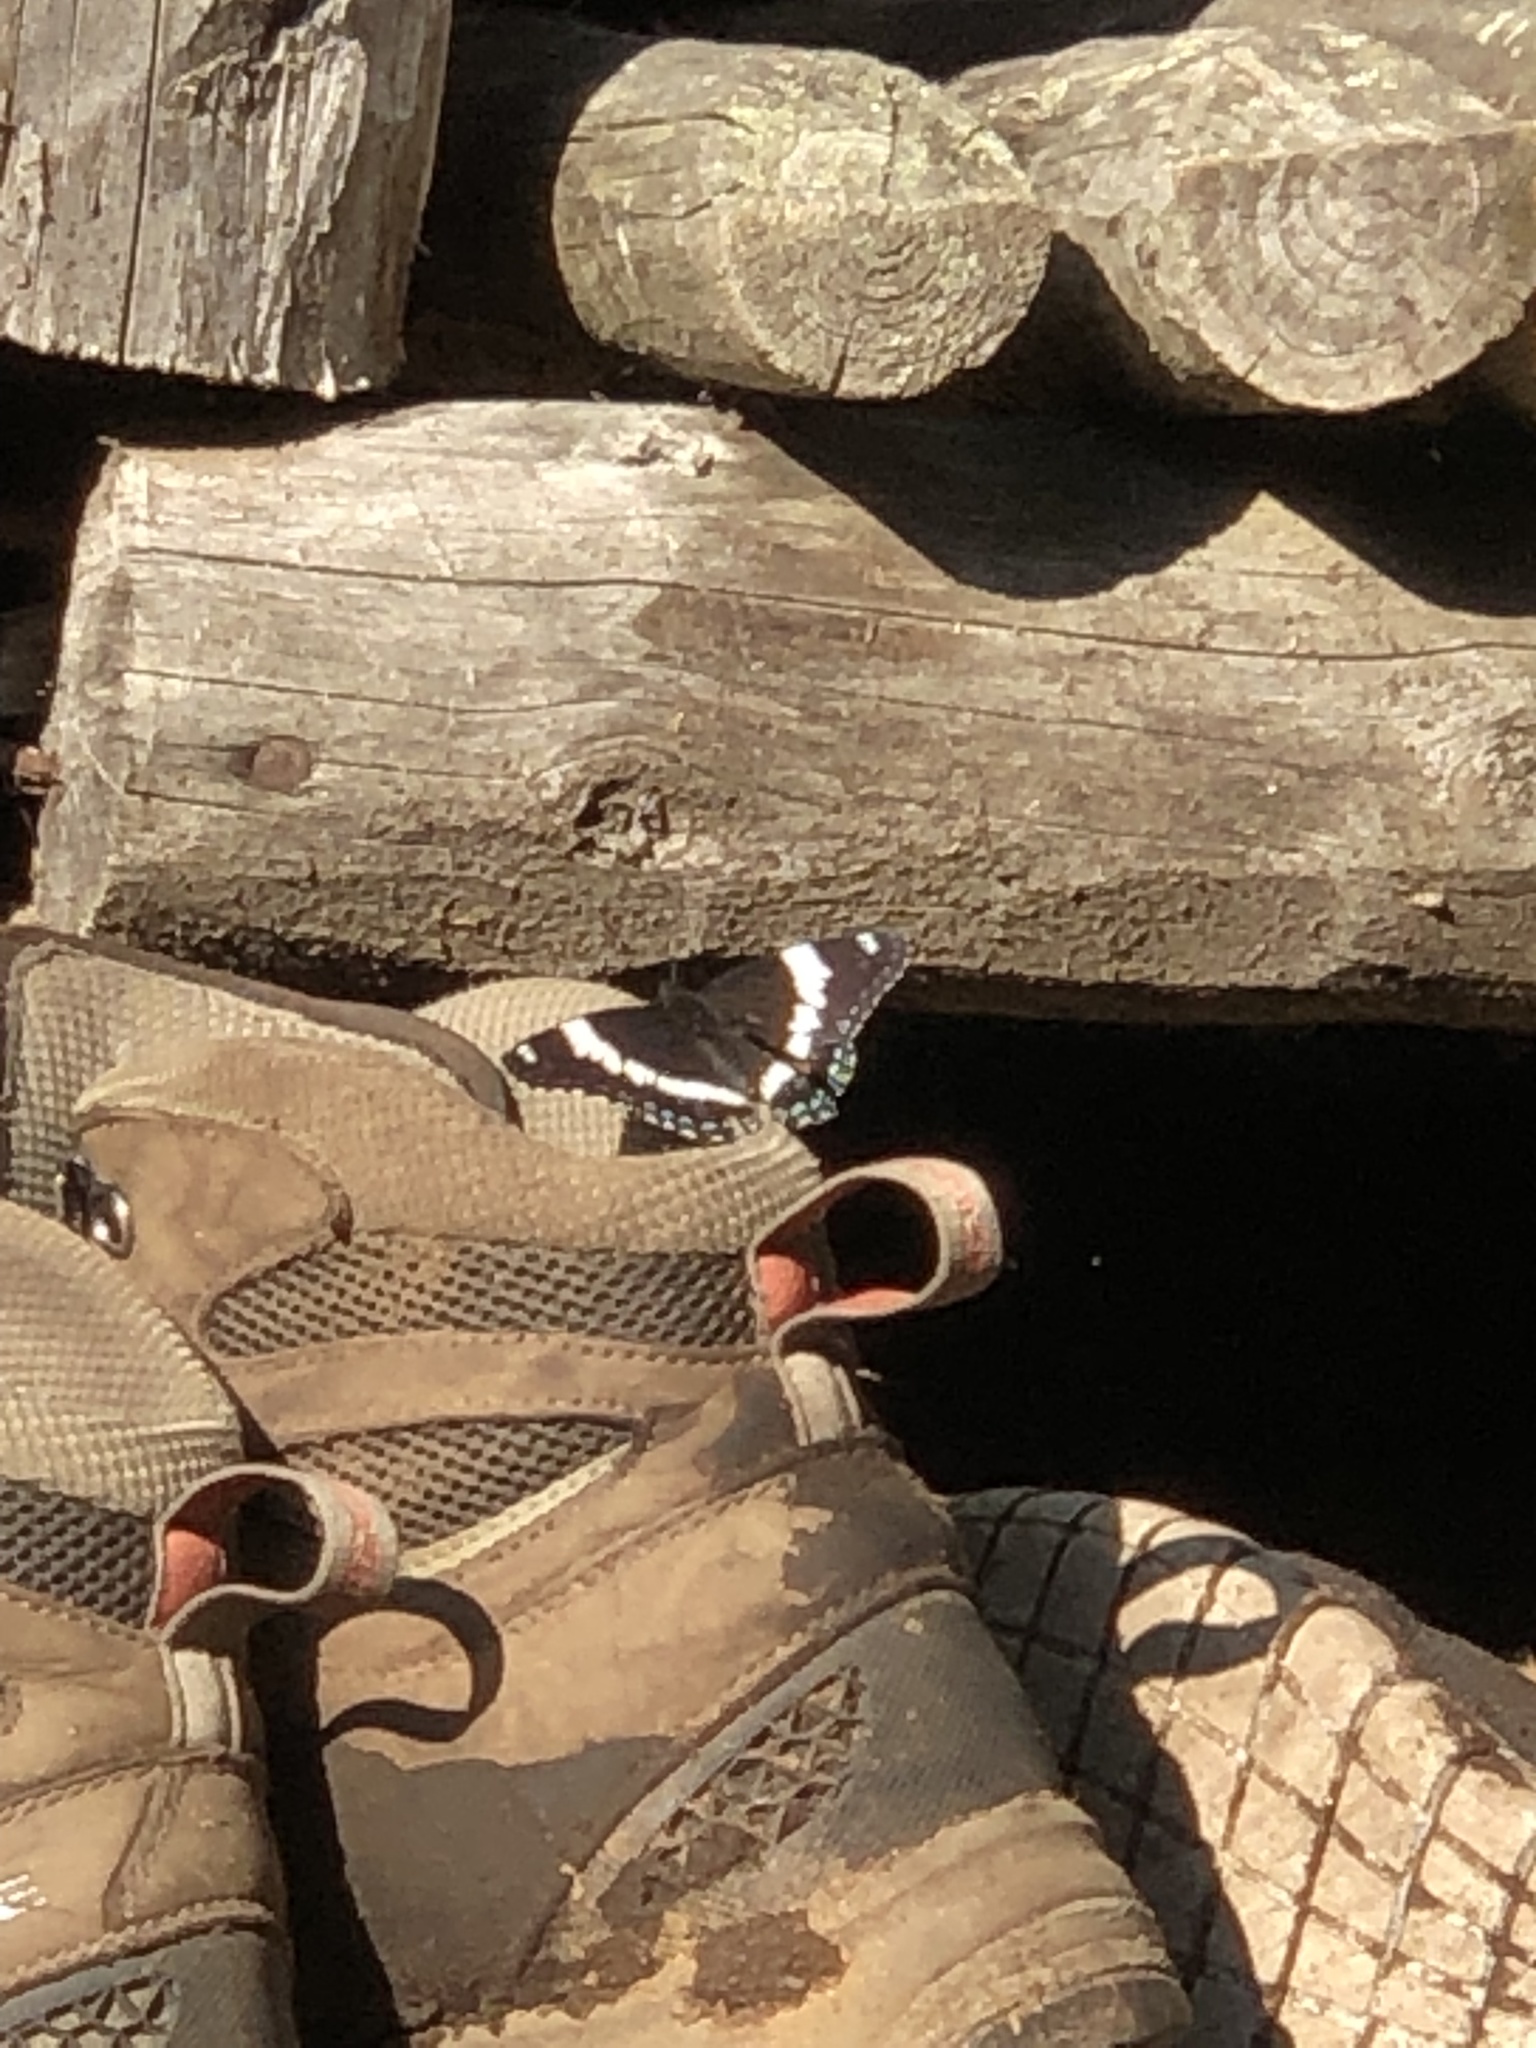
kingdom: Animalia
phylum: Arthropoda
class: Insecta
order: Lepidoptera
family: Nymphalidae
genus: Limenitis
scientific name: Limenitis arthemis
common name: Red-spotted admiral
